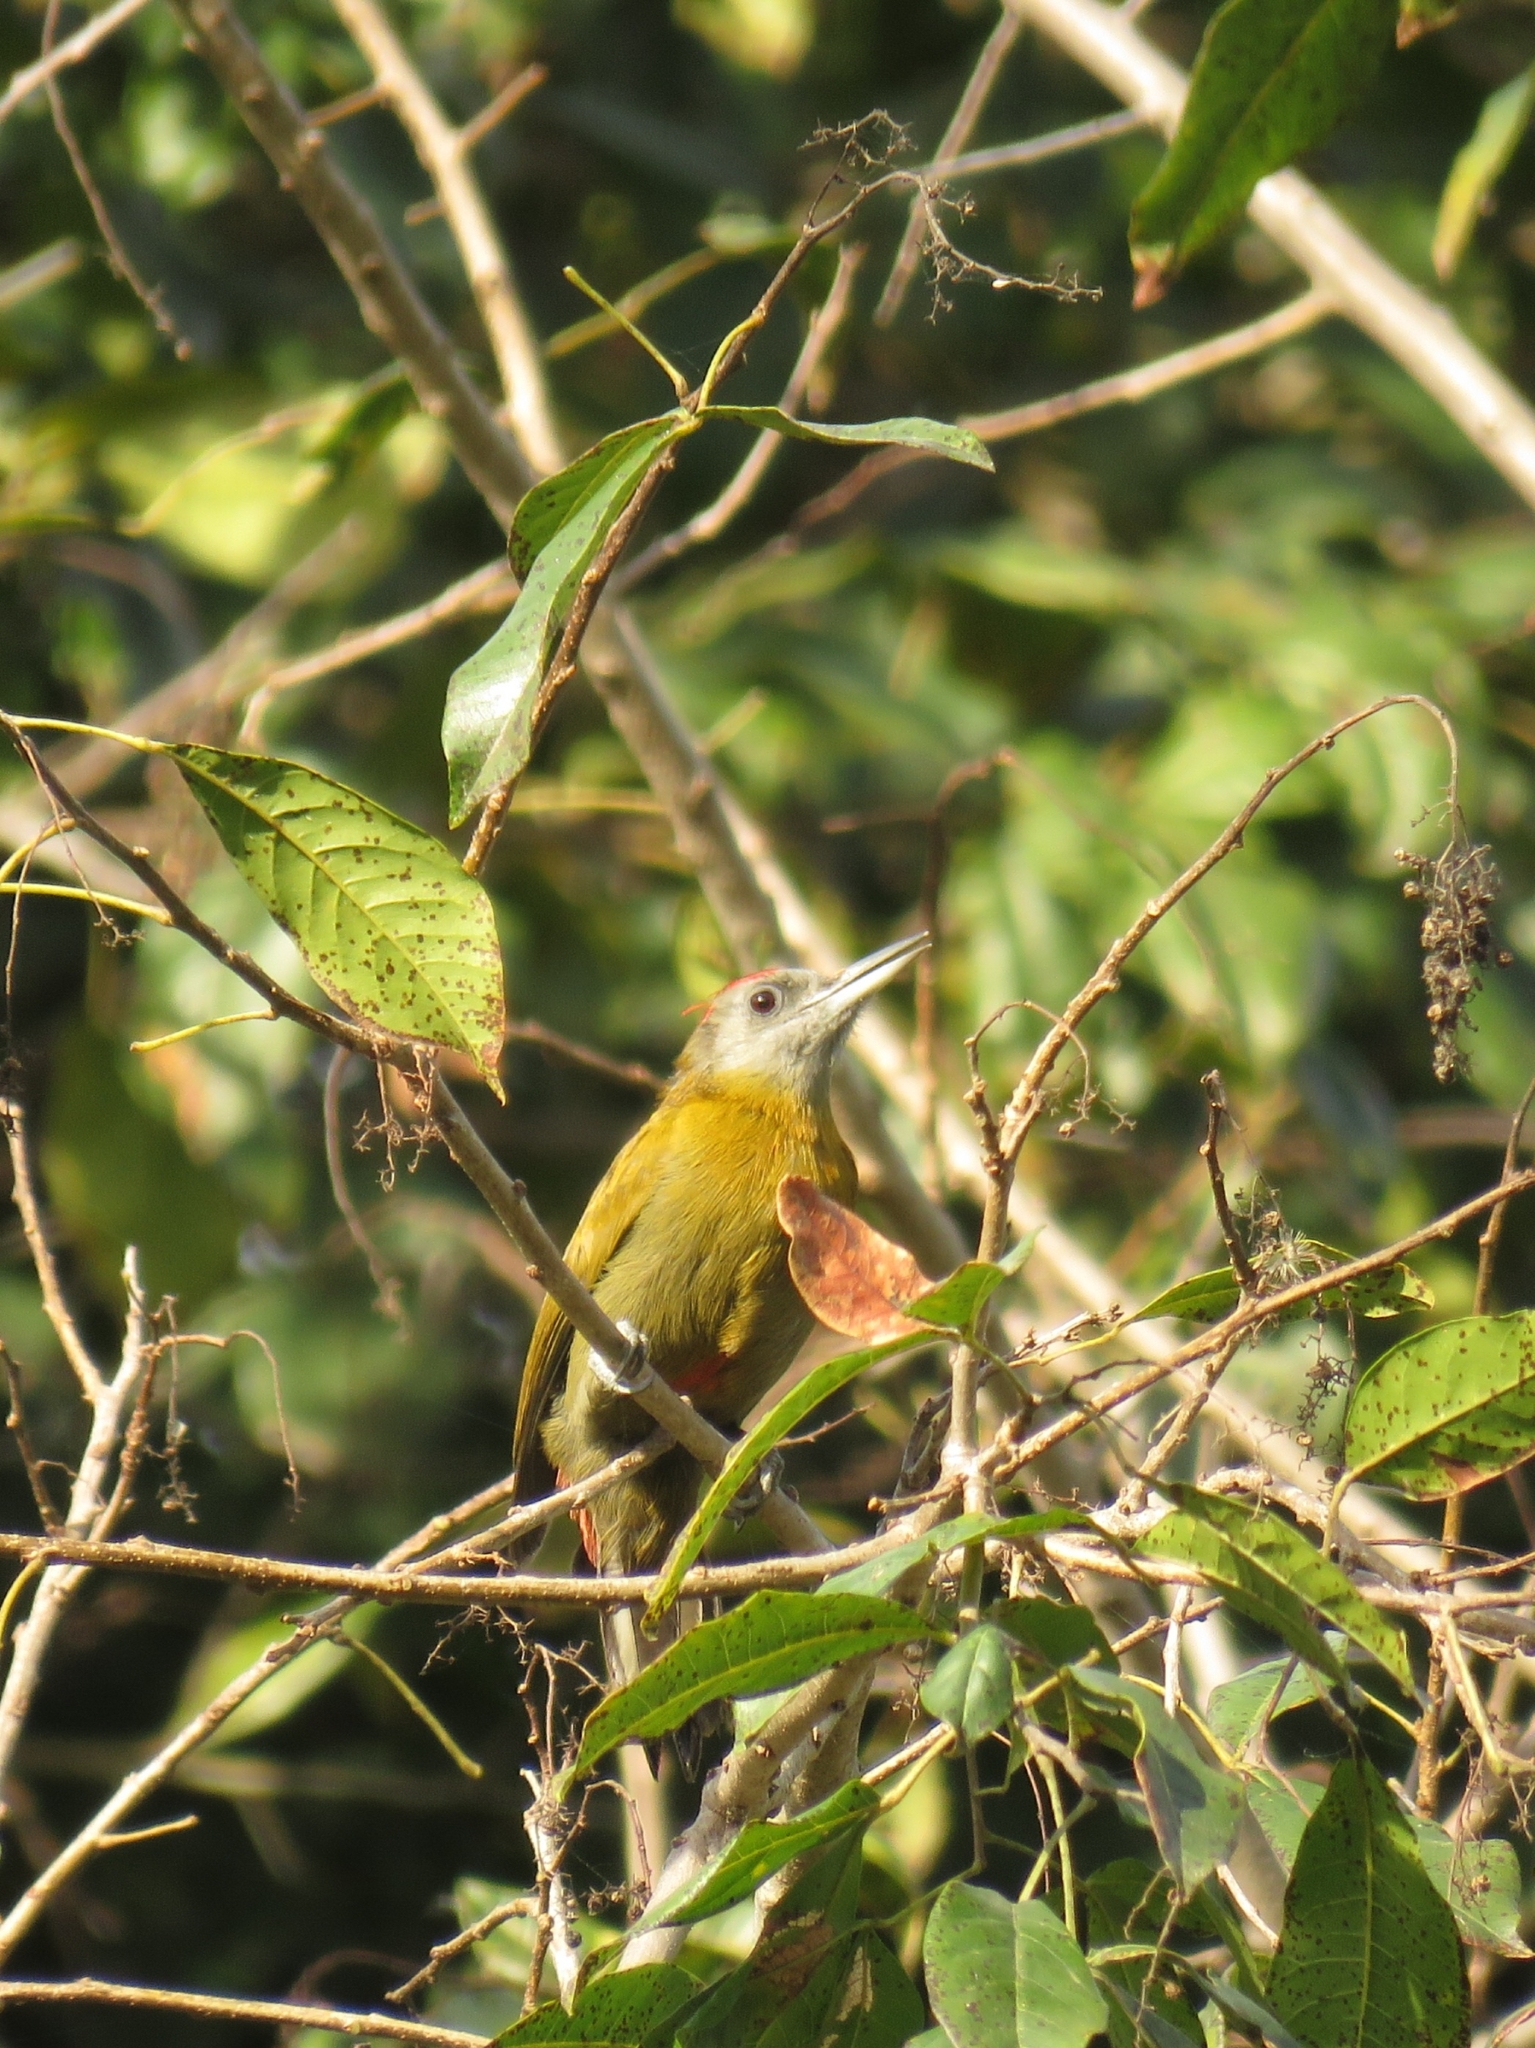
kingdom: Animalia
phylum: Chordata
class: Aves
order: Piciformes
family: Picidae
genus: Dendropicos
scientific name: Dendropicos griseocephalus
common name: Olive woodpecker
